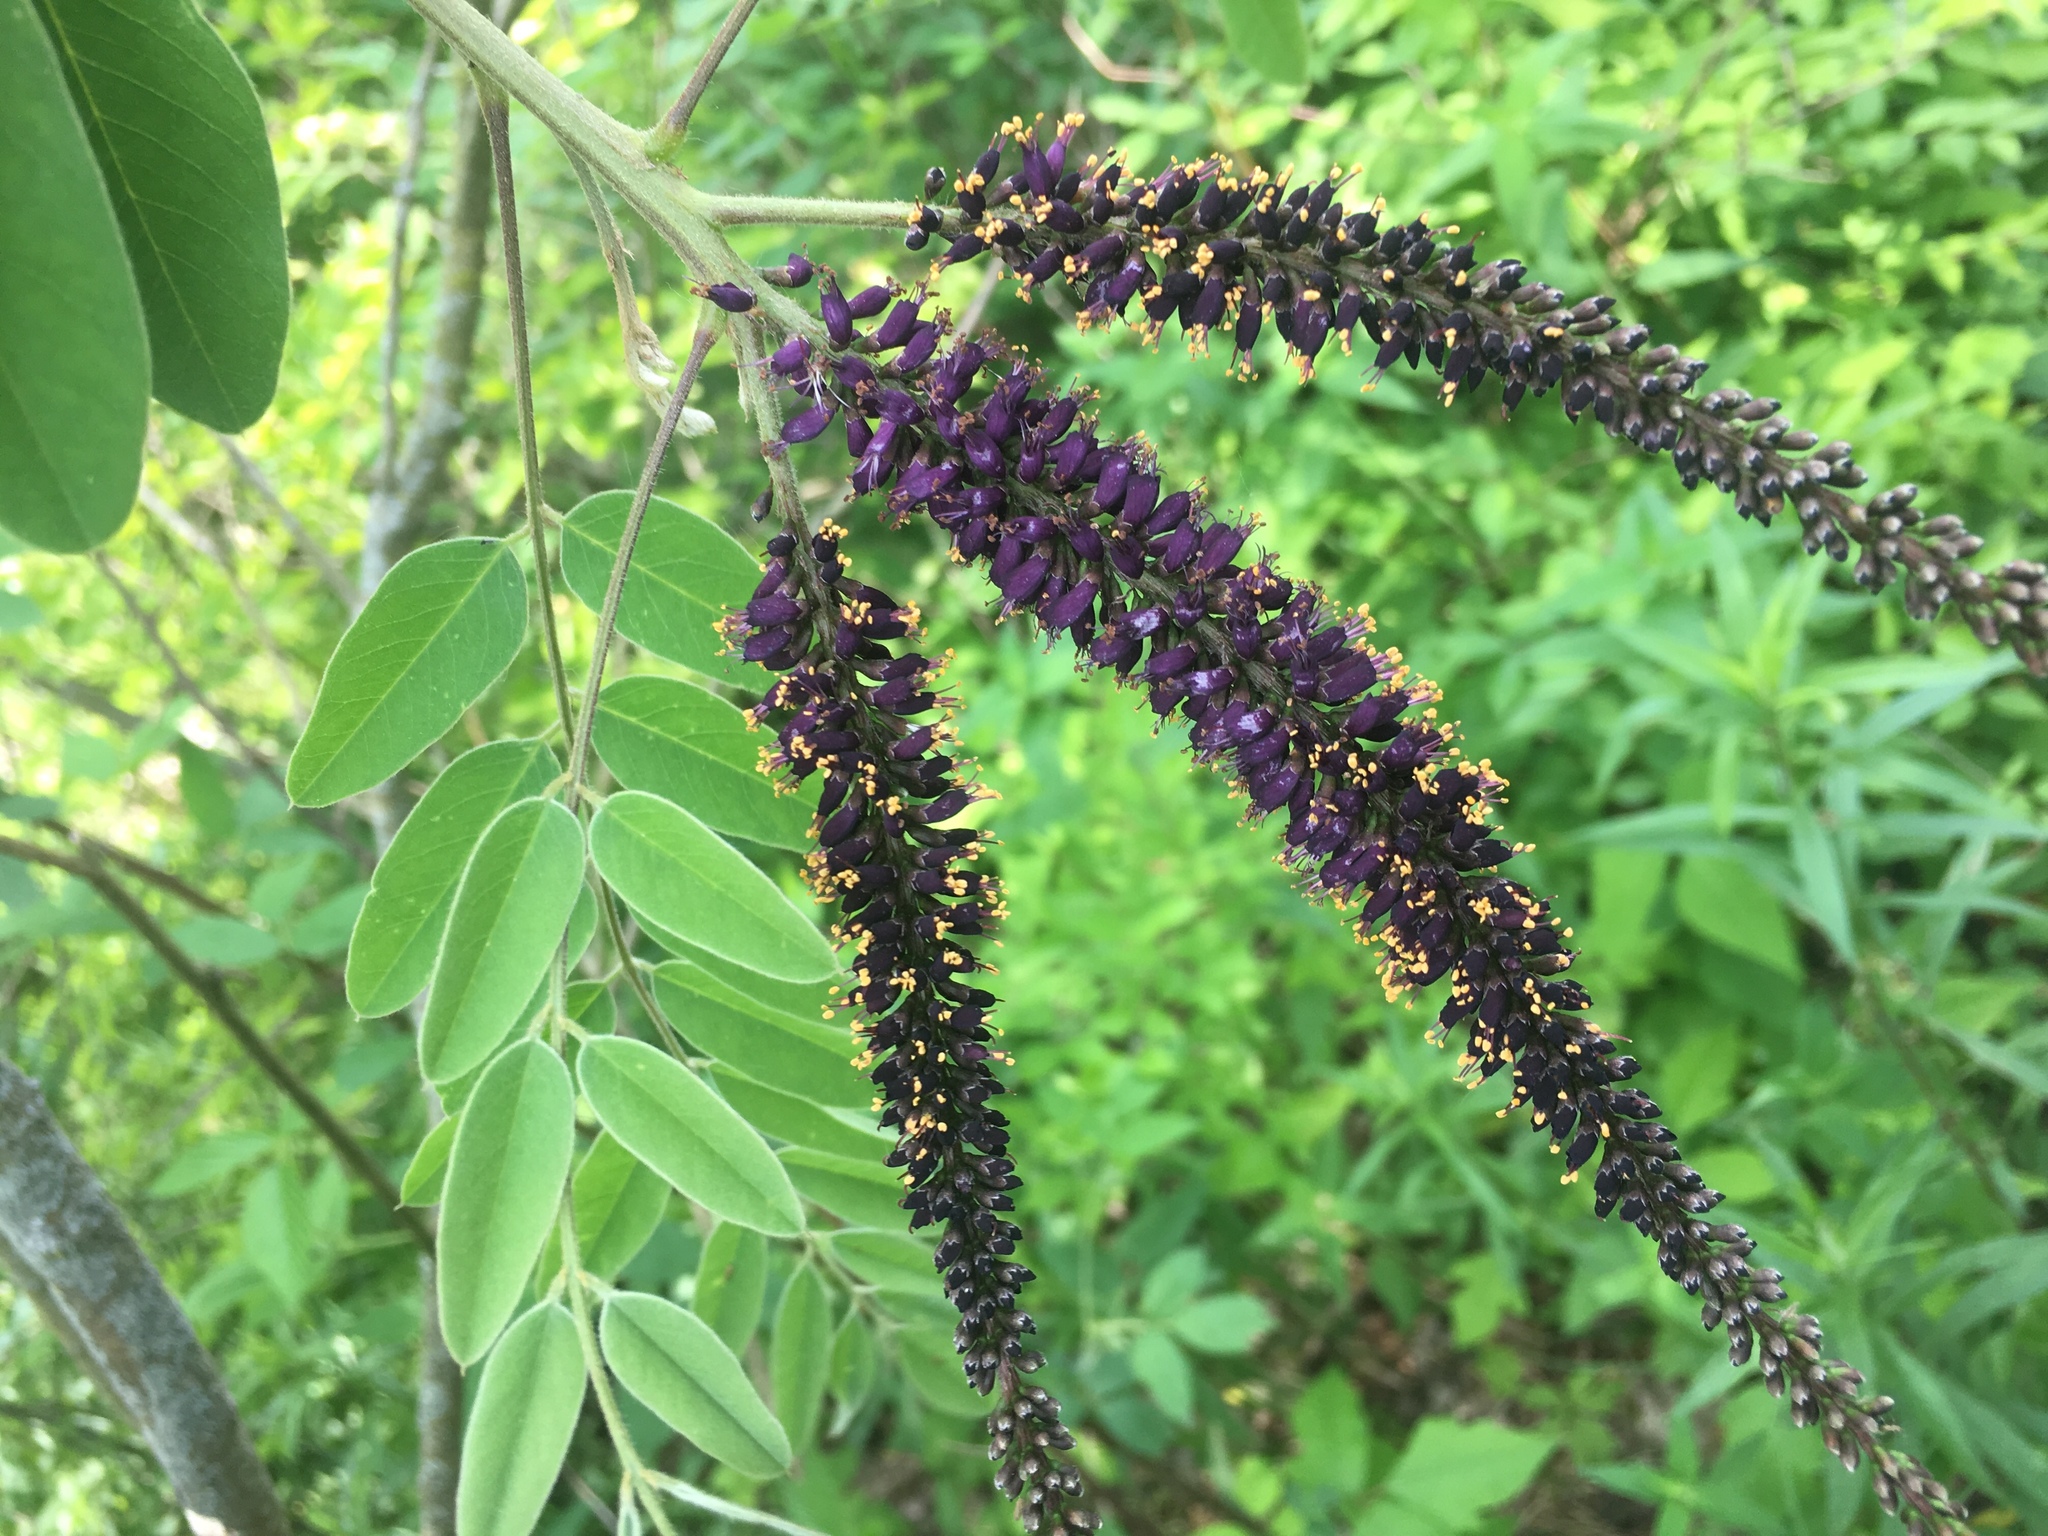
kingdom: Plantae
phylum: Tracheophyta
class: Magnoliopsida
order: Fabales
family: Fabaceae
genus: Amorpha
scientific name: Amorpha fruticosa
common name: False indigo
